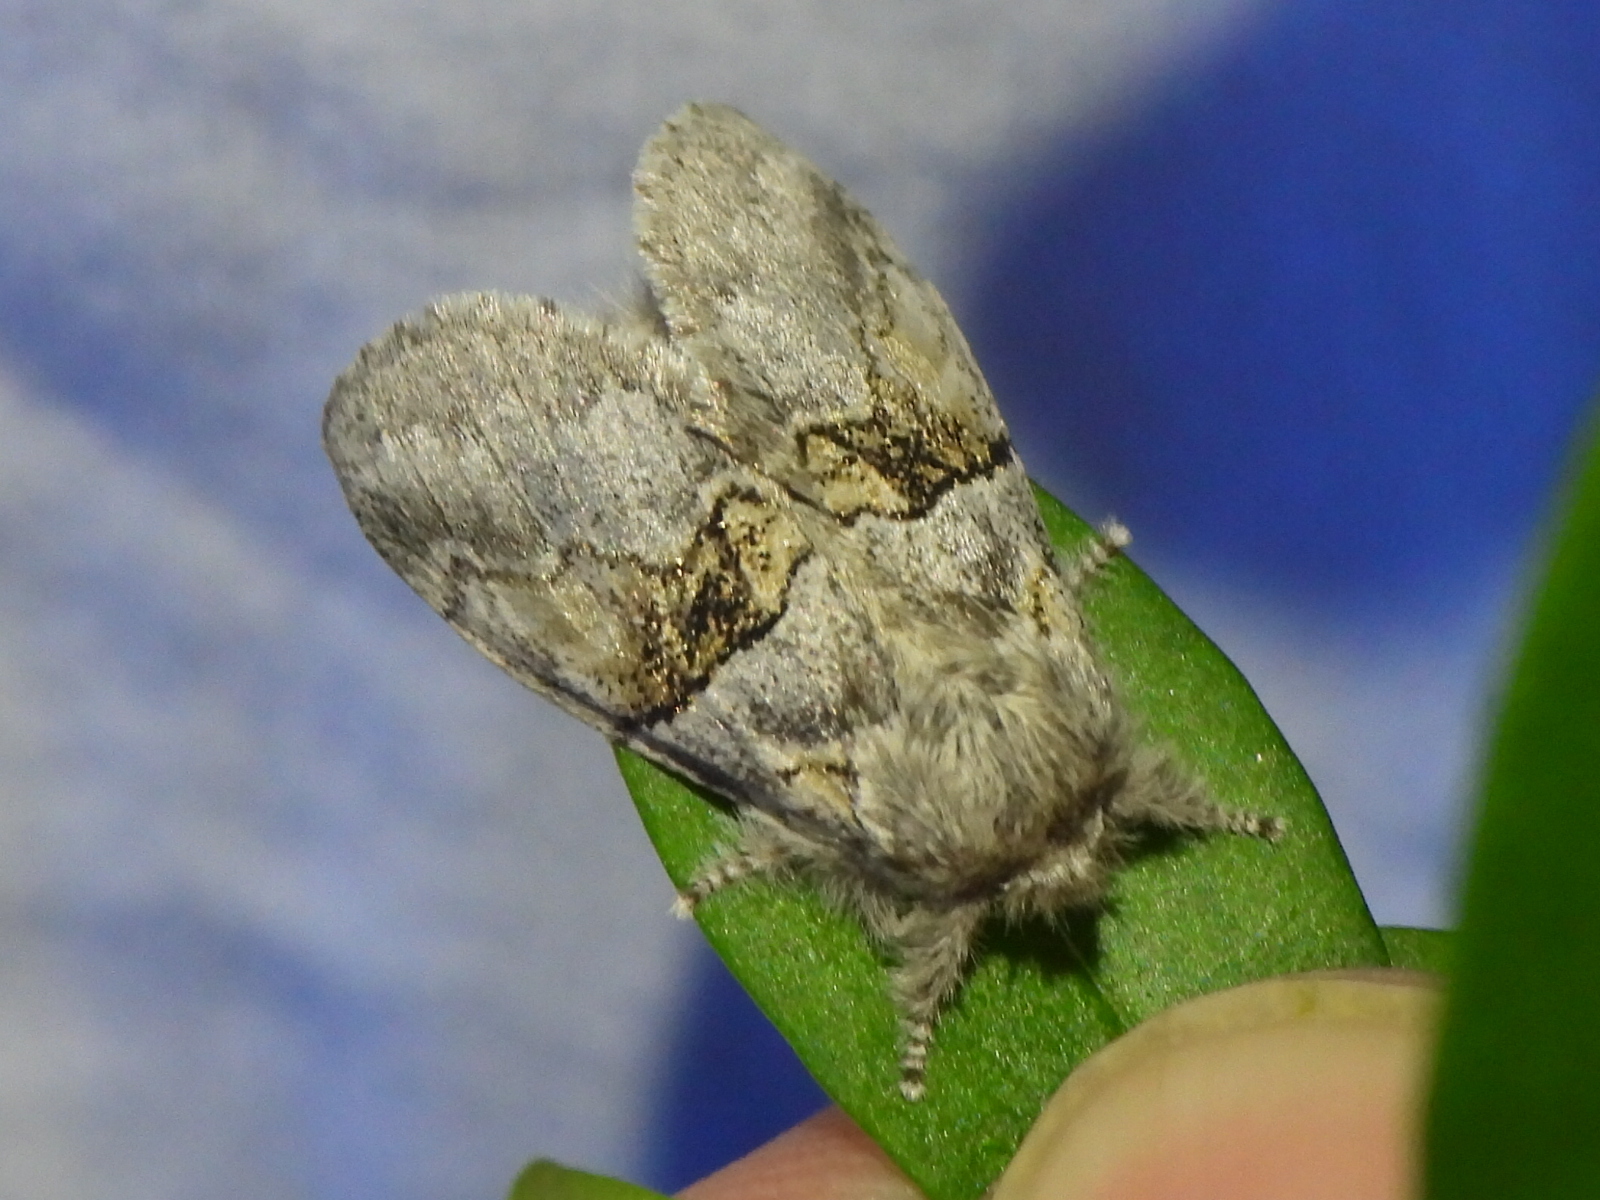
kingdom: Animalia
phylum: Arthropoda
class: Insecta
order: Lepidoptera
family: Notodontidae
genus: Gluphisia
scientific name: Gluphisia septentrionis
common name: Common gluphisia
